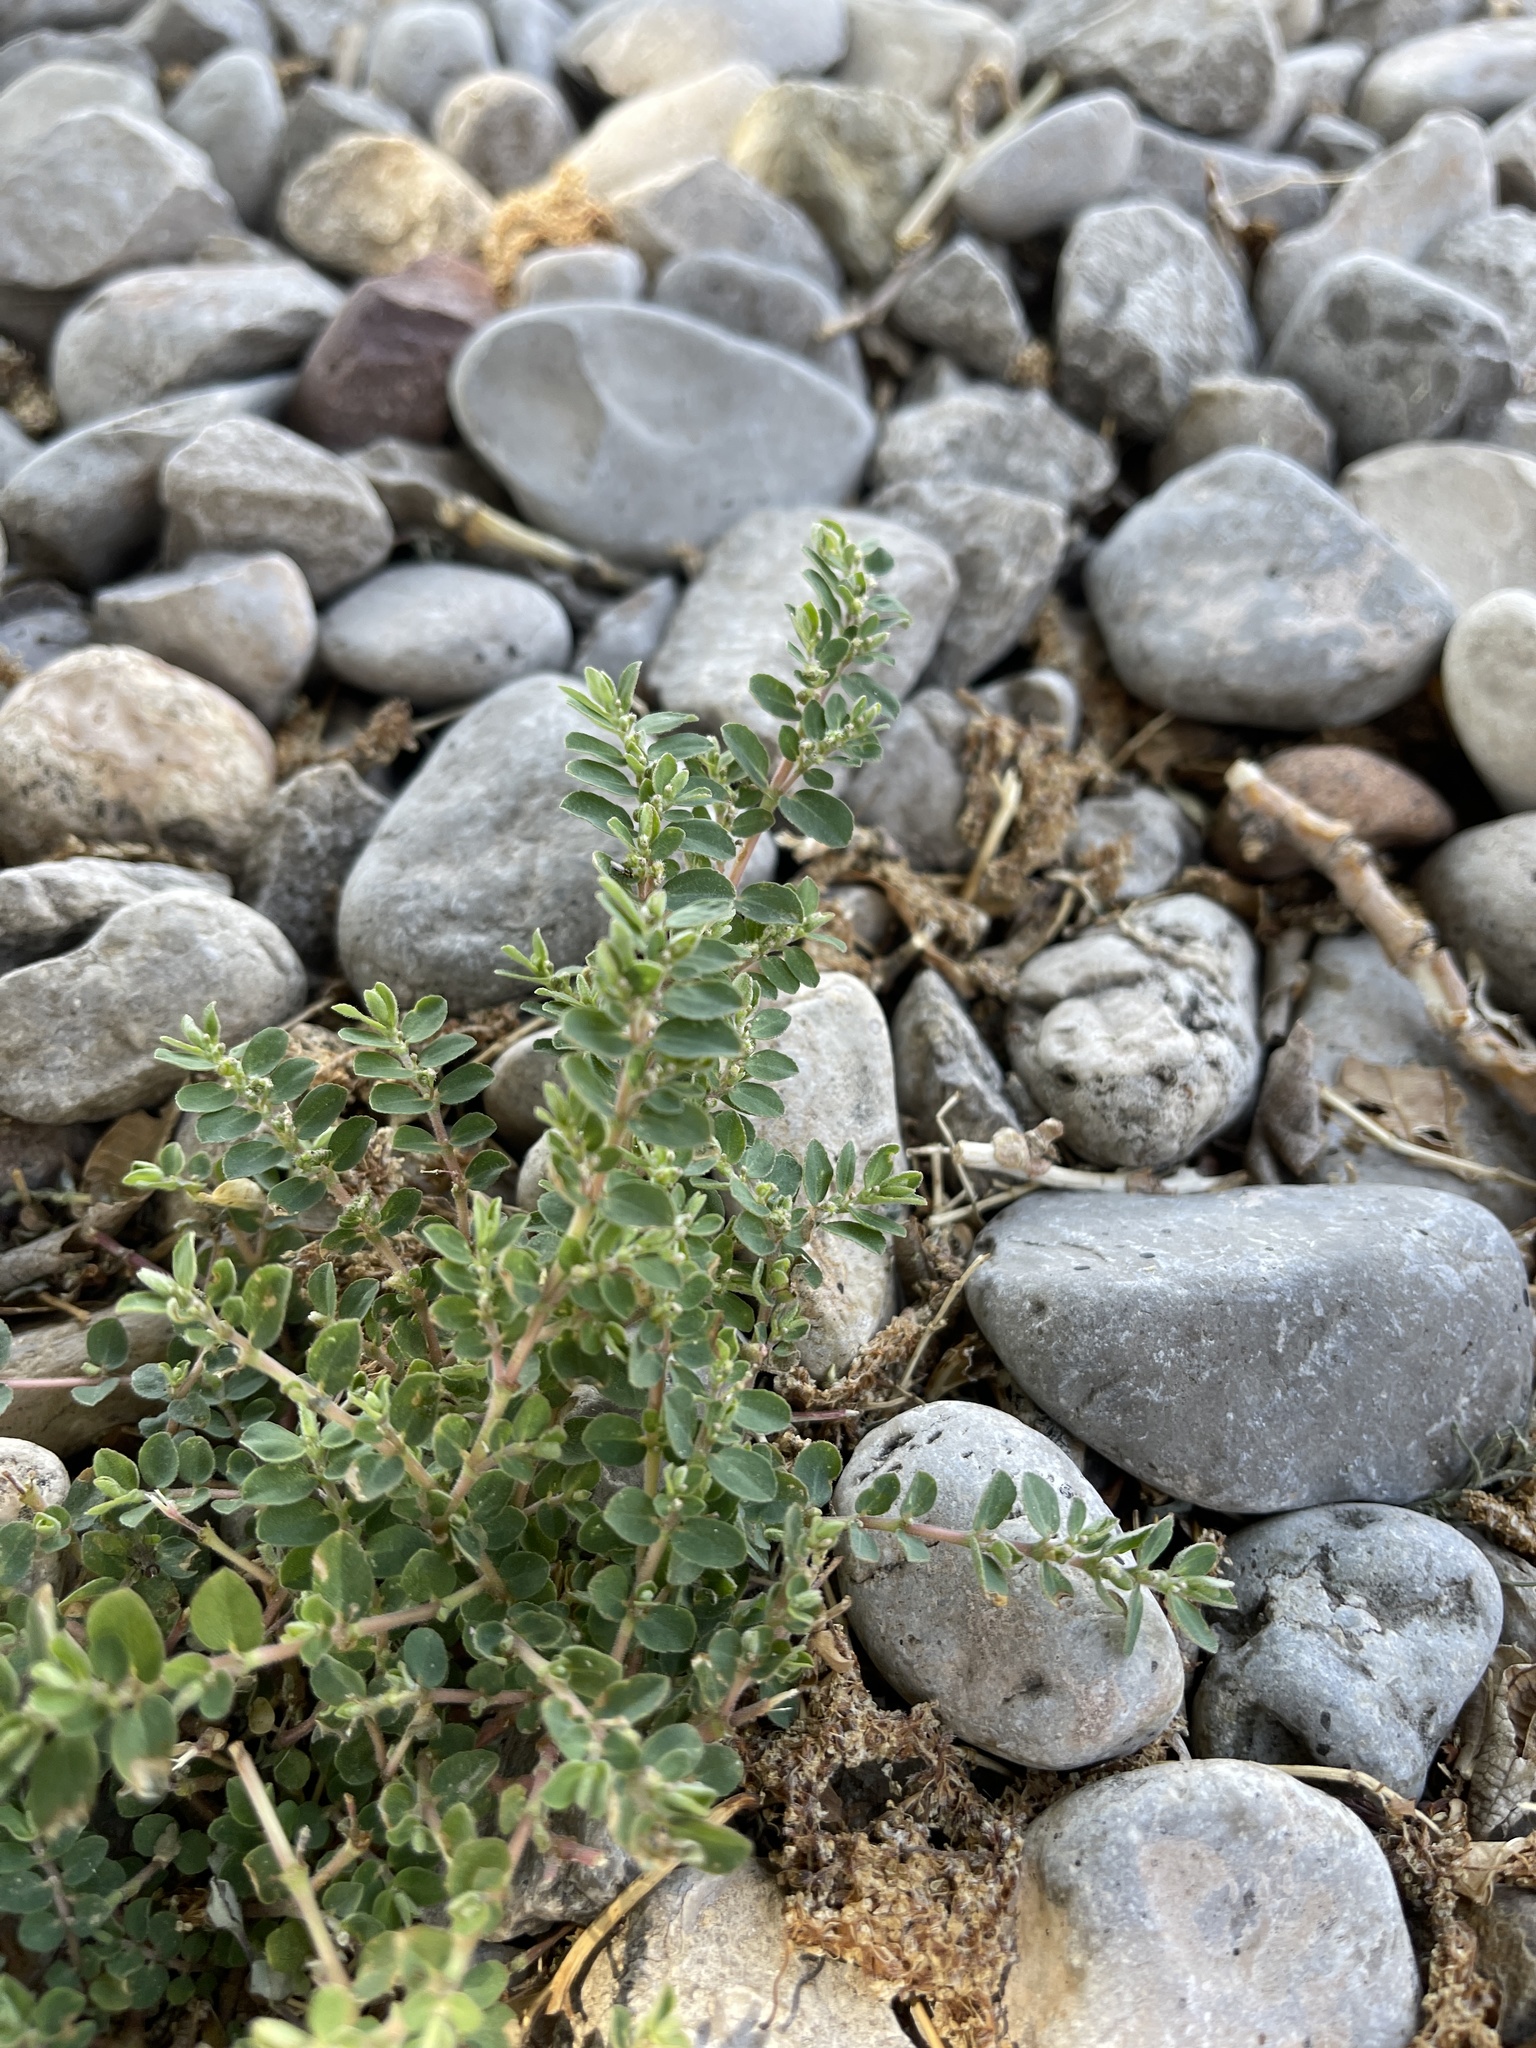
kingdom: Plantae
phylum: Tracheophyta
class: Magnoliopsida
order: Malpighiales
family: Euphorbiaceae
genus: Euphorbia
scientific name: Euphorbia prostrata
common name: Prostrate sandmat
